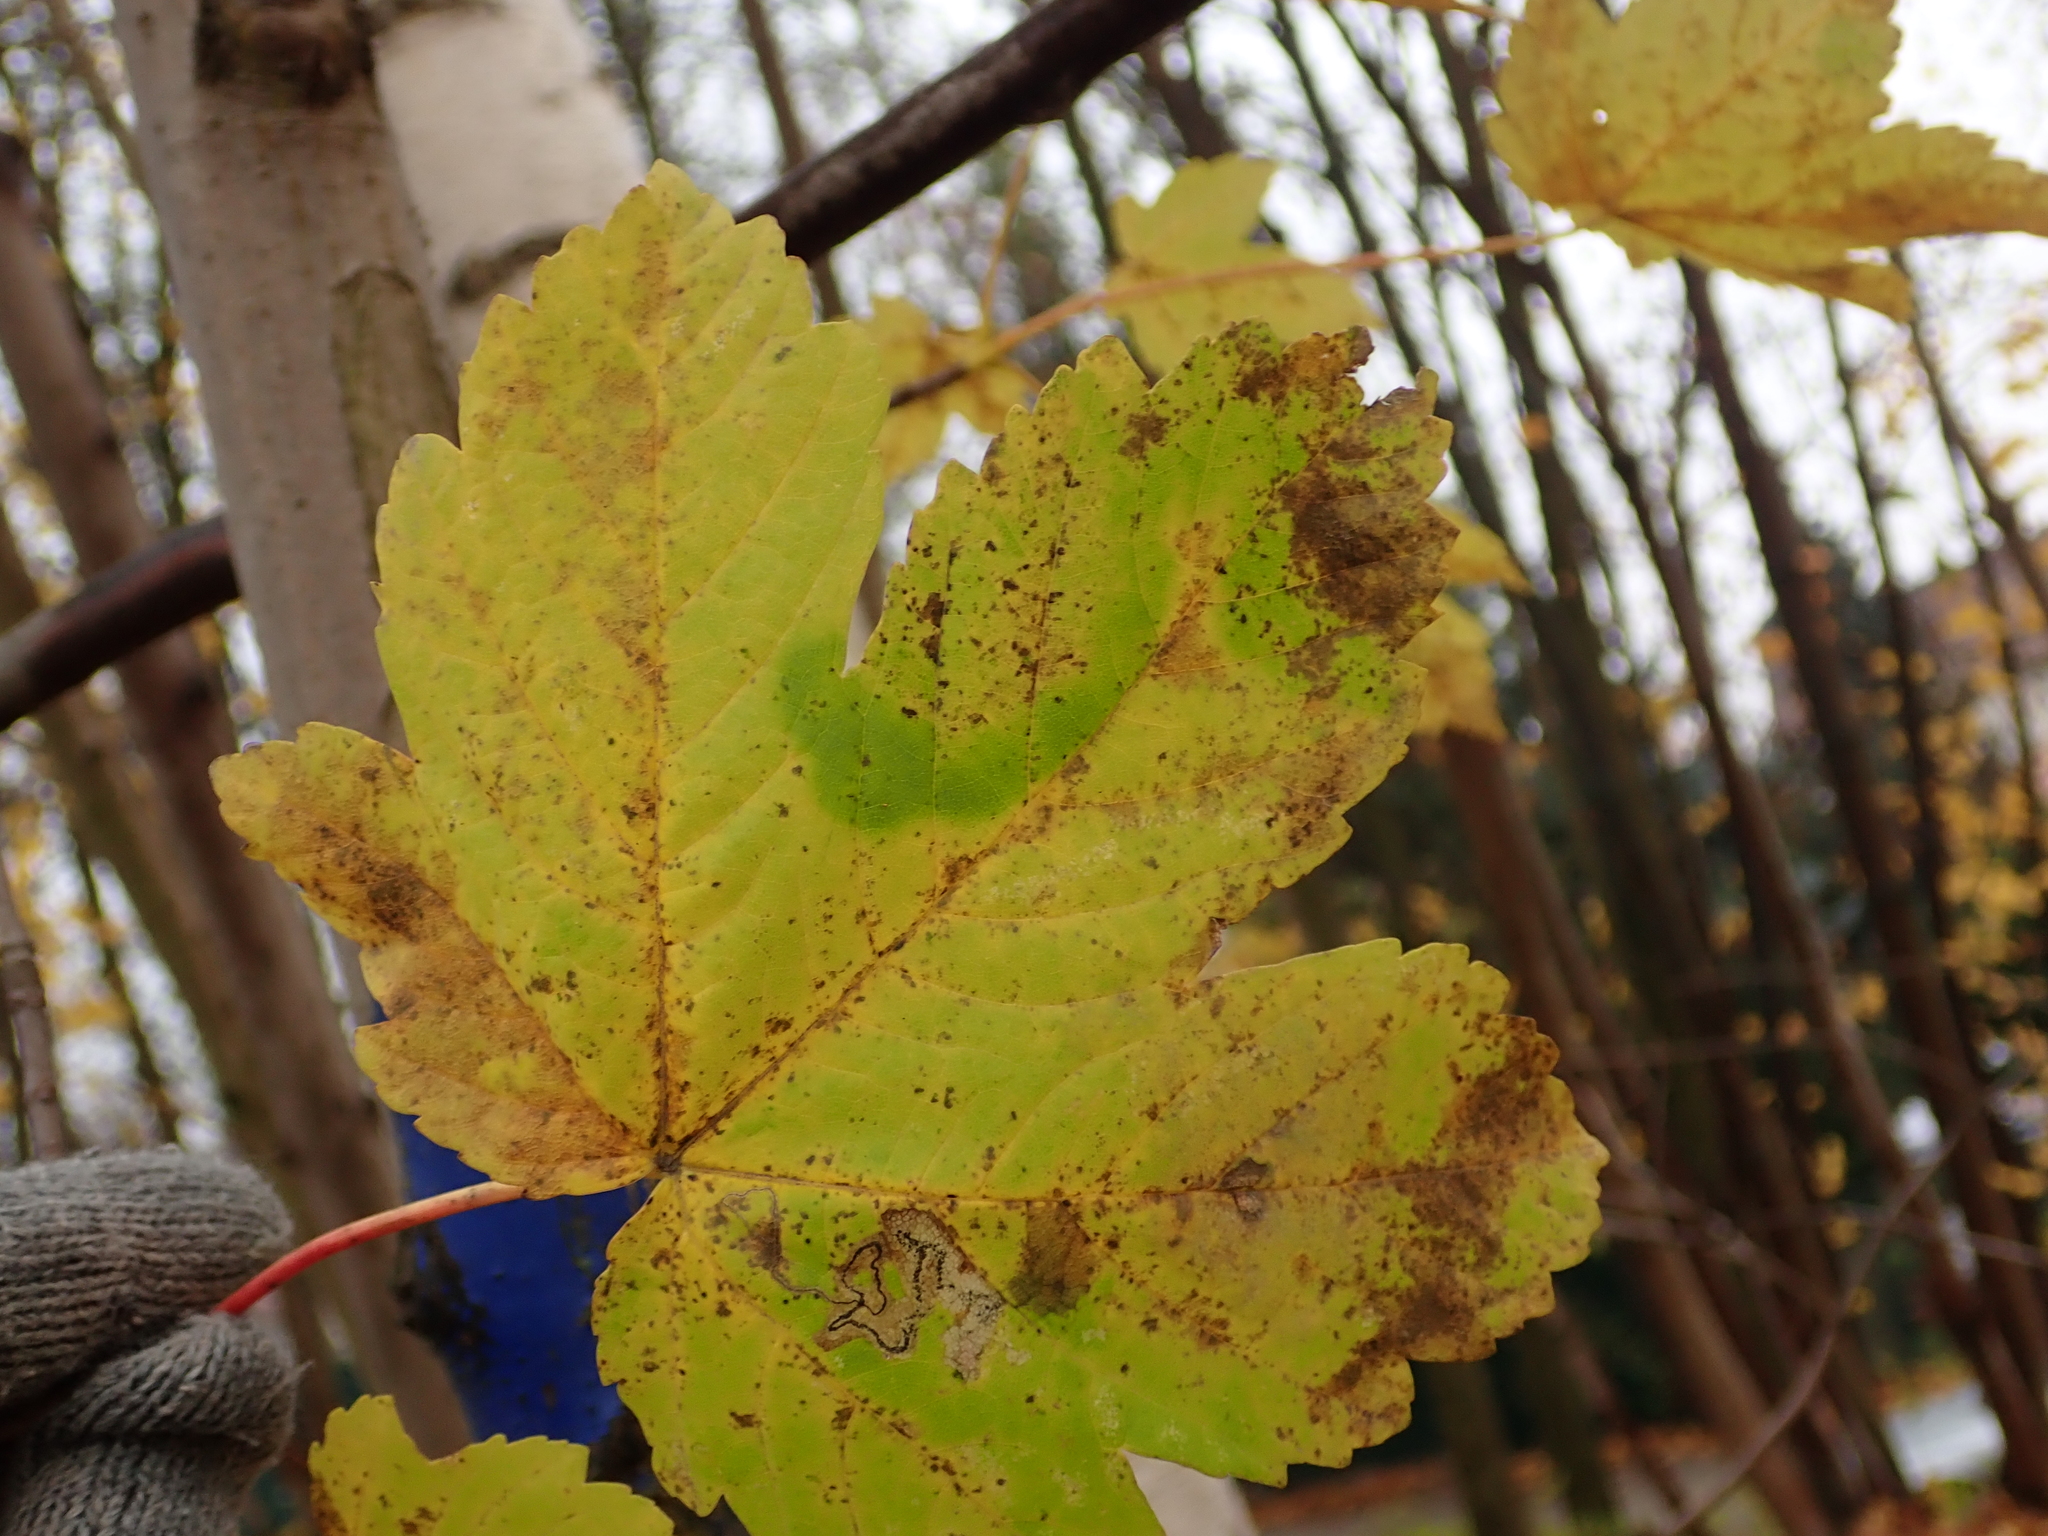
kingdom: Plantae
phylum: Tracheophyta
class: Magnoliopsida
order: Sapindales
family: Sapindaceae
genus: Acer
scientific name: Acer pseudoplatanus
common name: Sycamore
